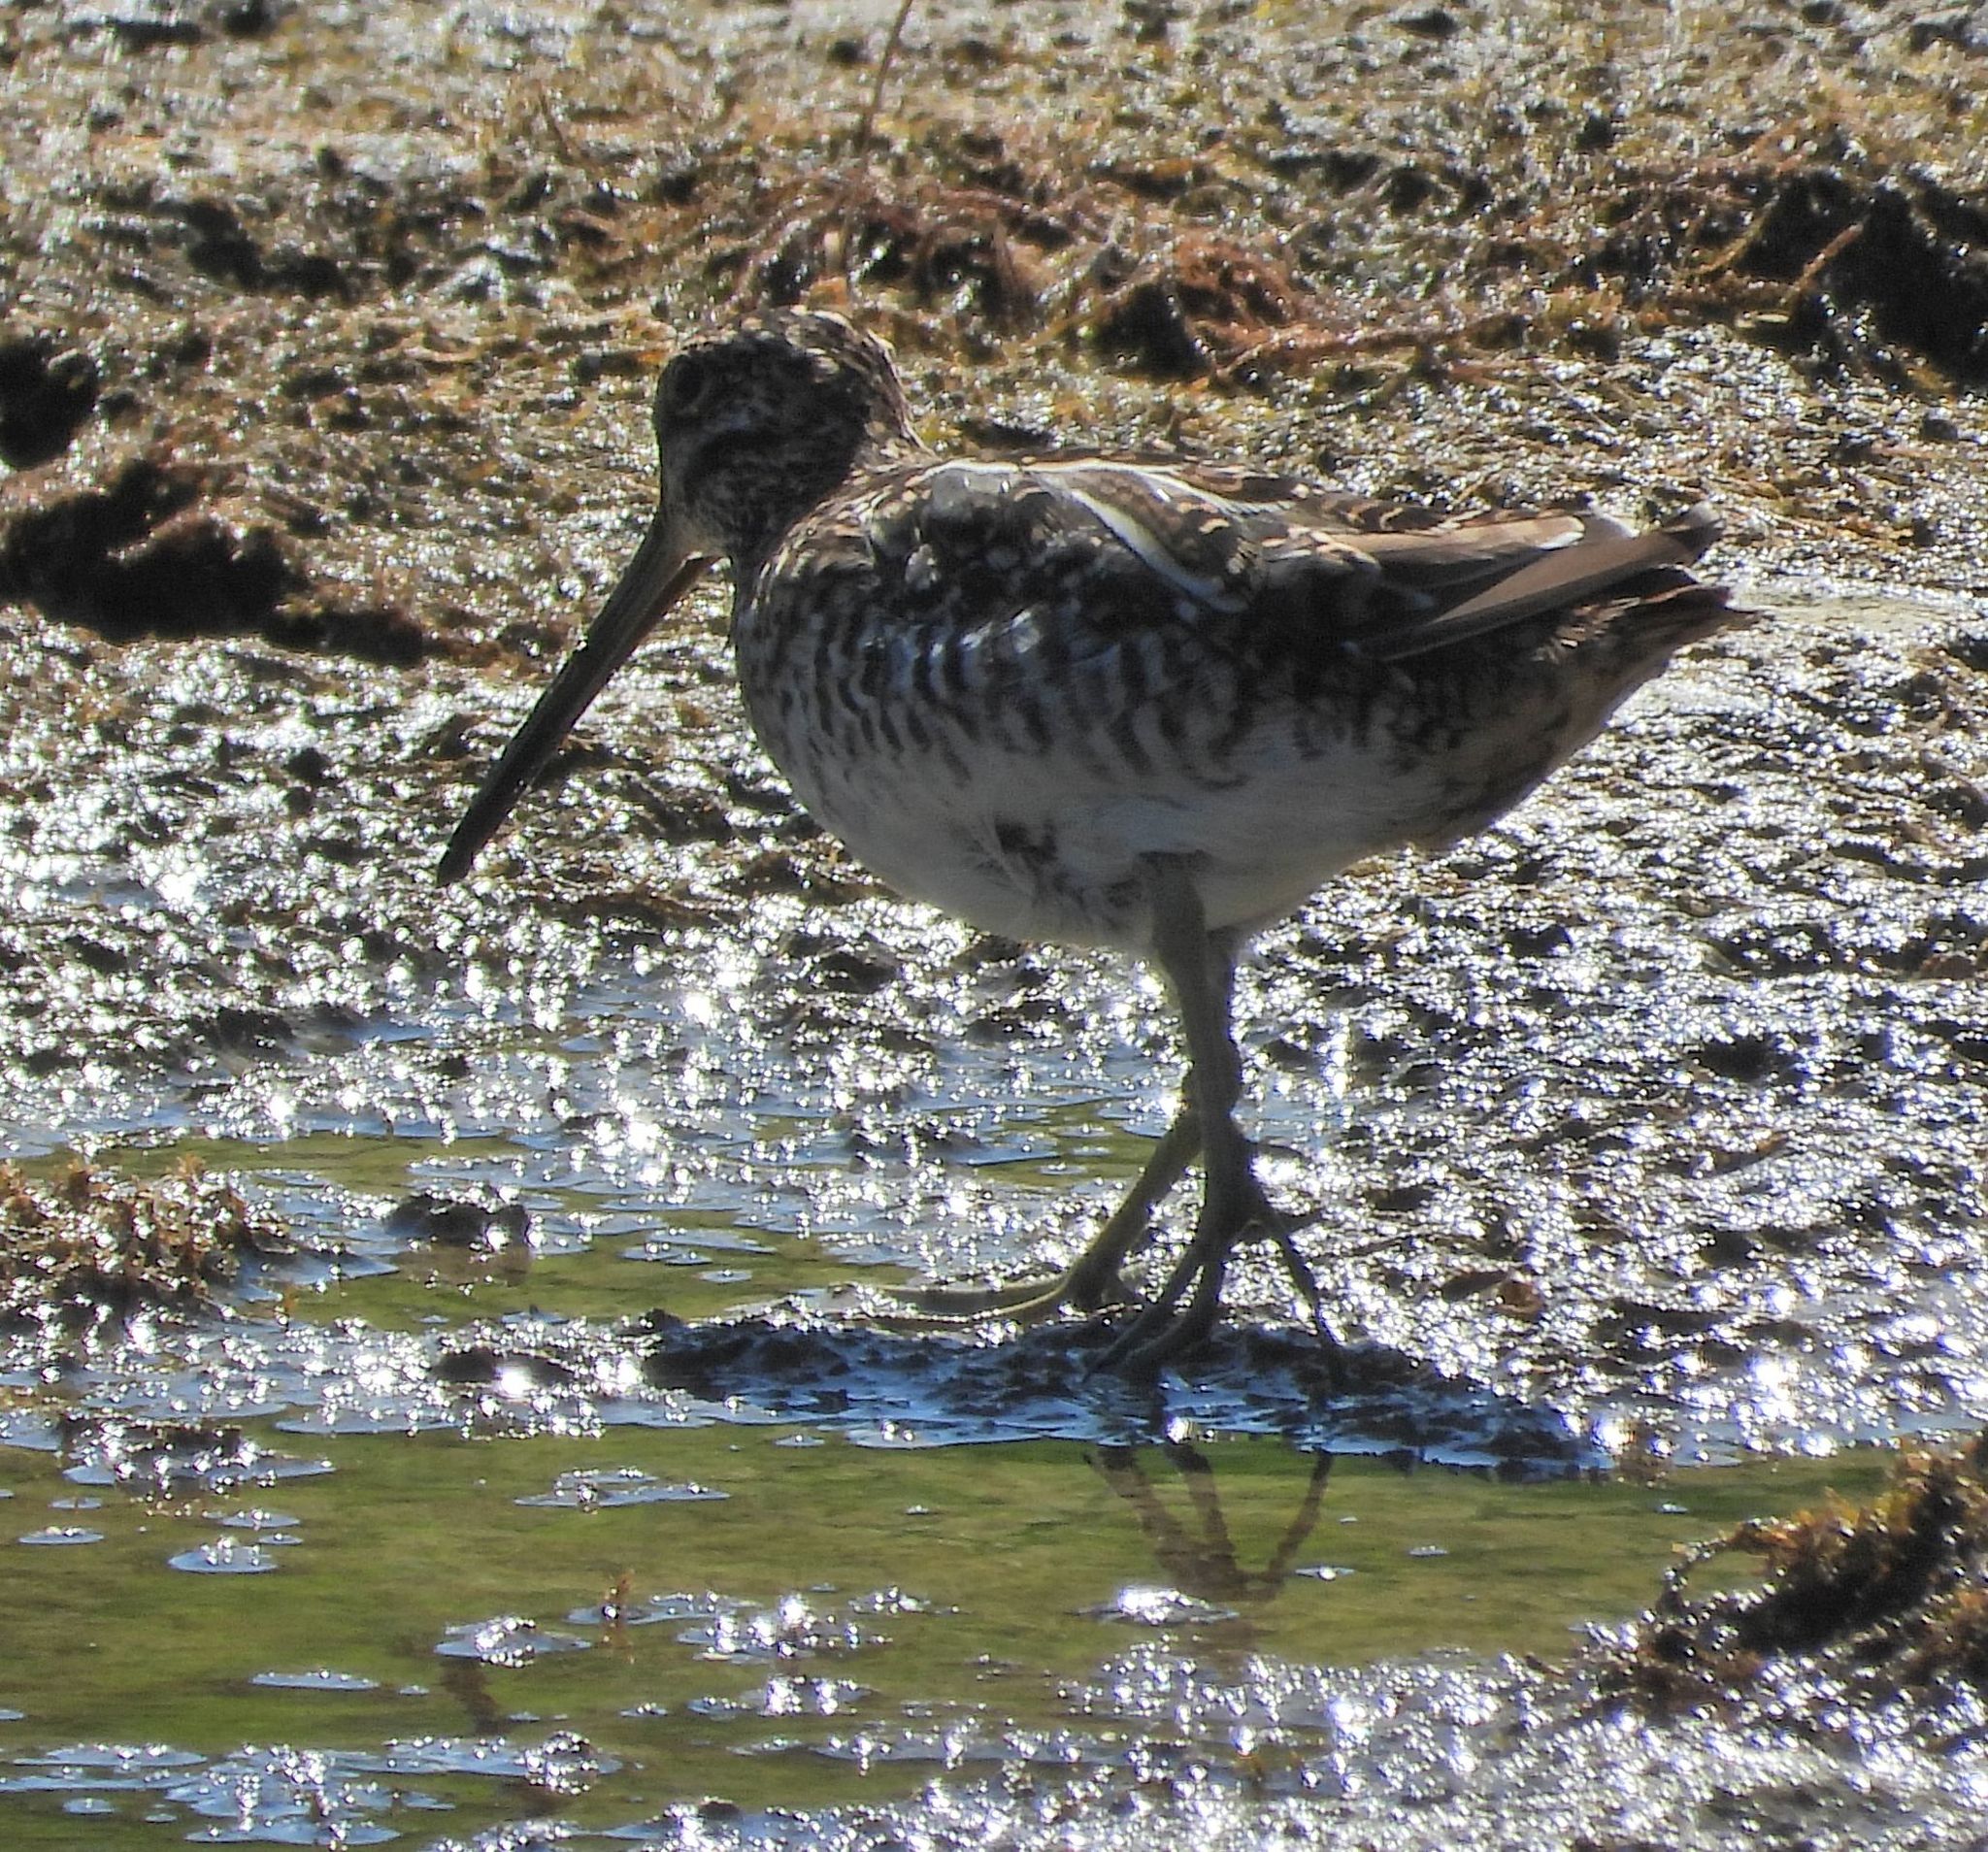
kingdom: Animalia
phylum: Chordata
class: Aves
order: Charadriiformes
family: Scolopacidae
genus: Gallinago
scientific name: Gallinago delicata
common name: Wilson's snipe
